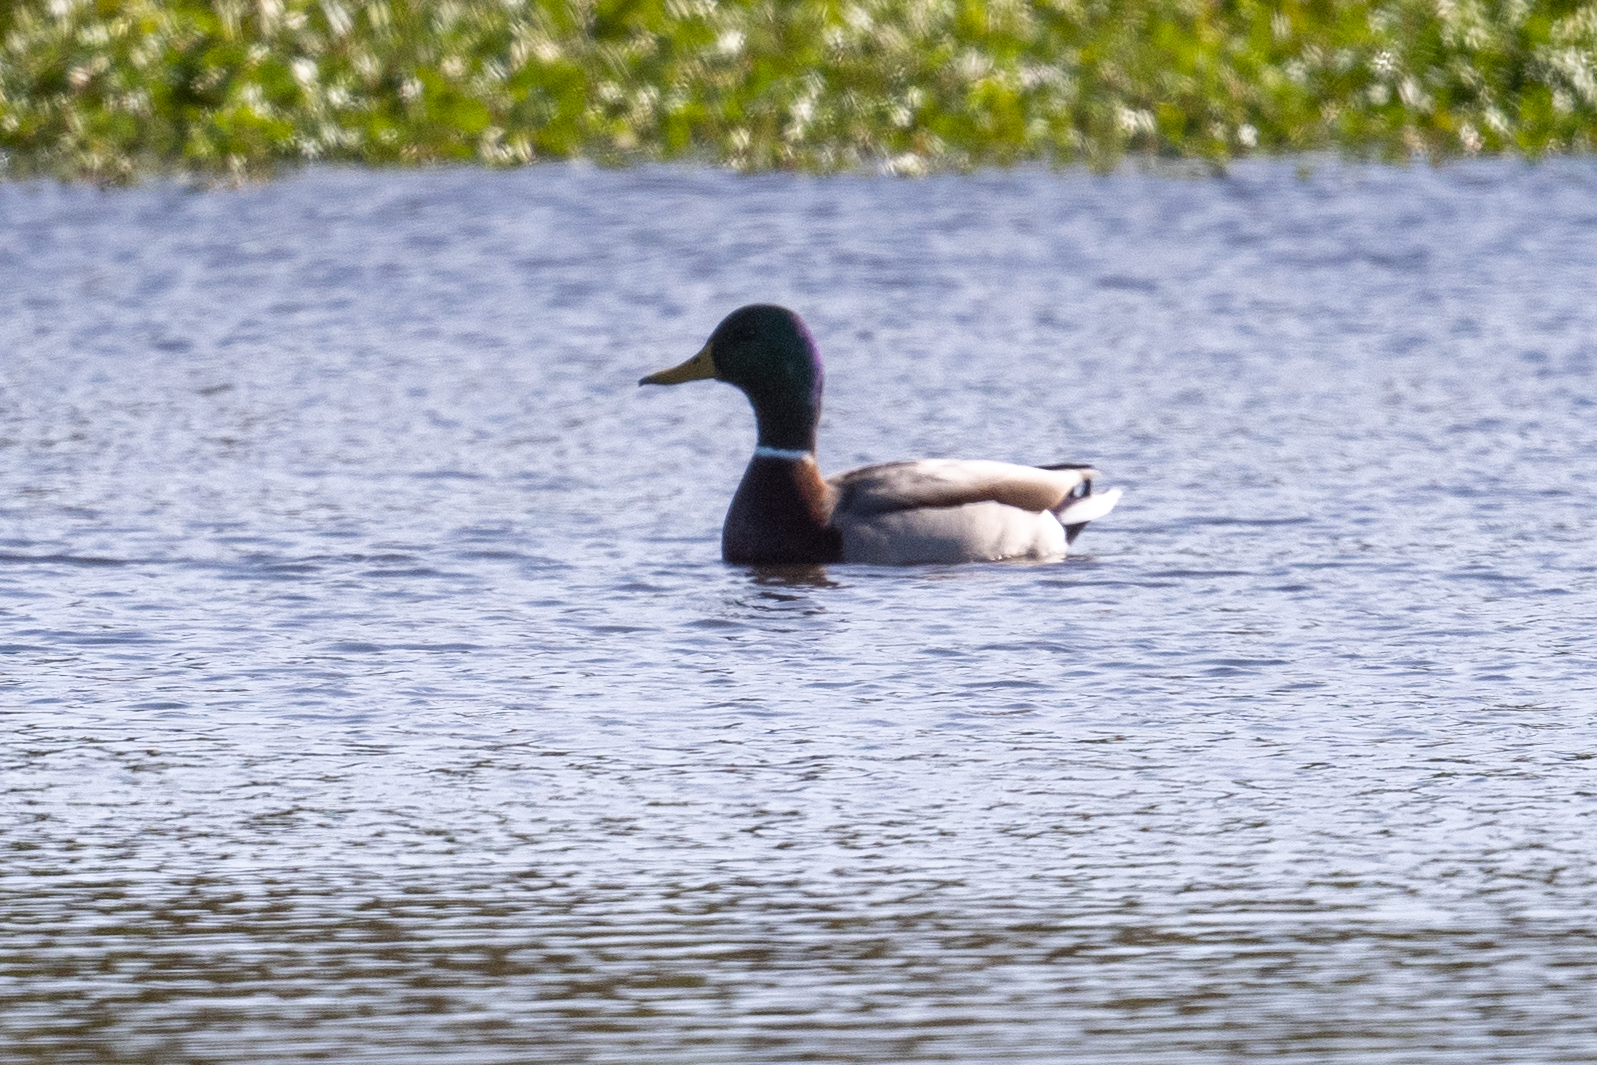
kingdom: Animalia
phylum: Chordata
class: Aves
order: Anseriformes
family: Anatidae
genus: Anas
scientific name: Anas platyrhynchos
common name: Mallard
